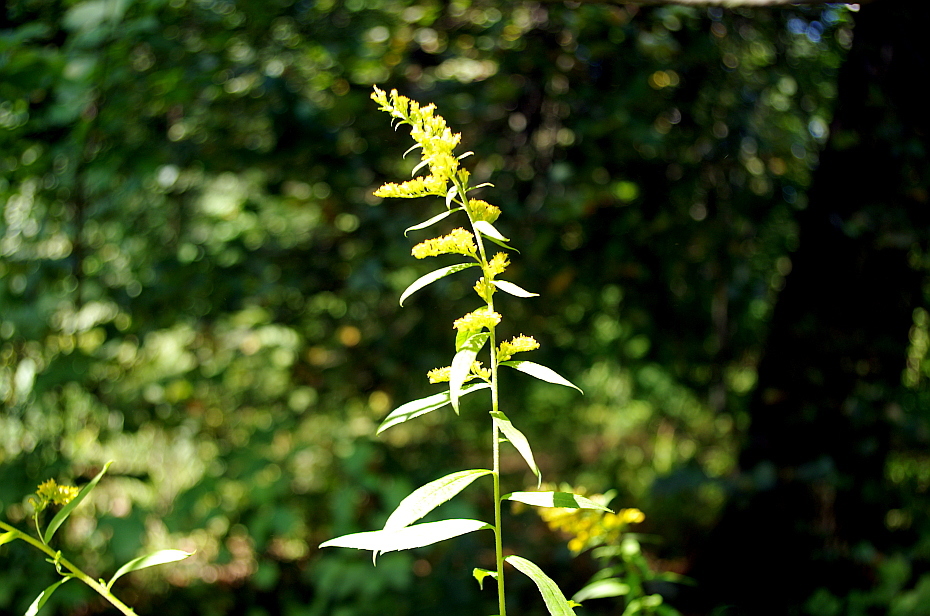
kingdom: Plantae
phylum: Tracheophyta
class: Magnoliopsida
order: Asterales
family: Asteraceae
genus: Solidago
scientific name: Solidago canadensis
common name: Canada goldenrod
